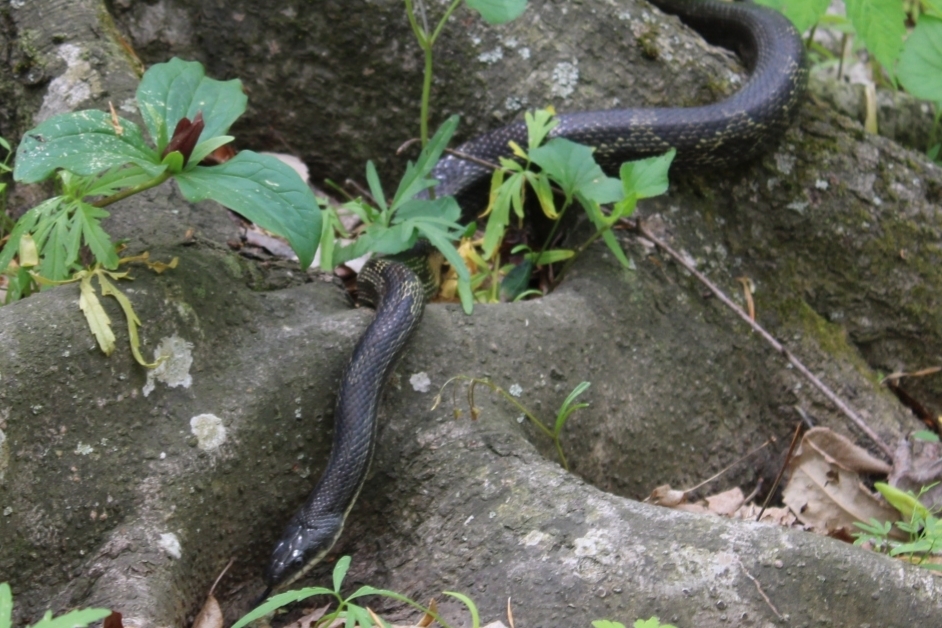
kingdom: Animalia
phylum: Chordata
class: Squamata
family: Colubridae
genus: Pantherophis
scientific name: Pantherophis spiloides
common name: Gray rat snake
